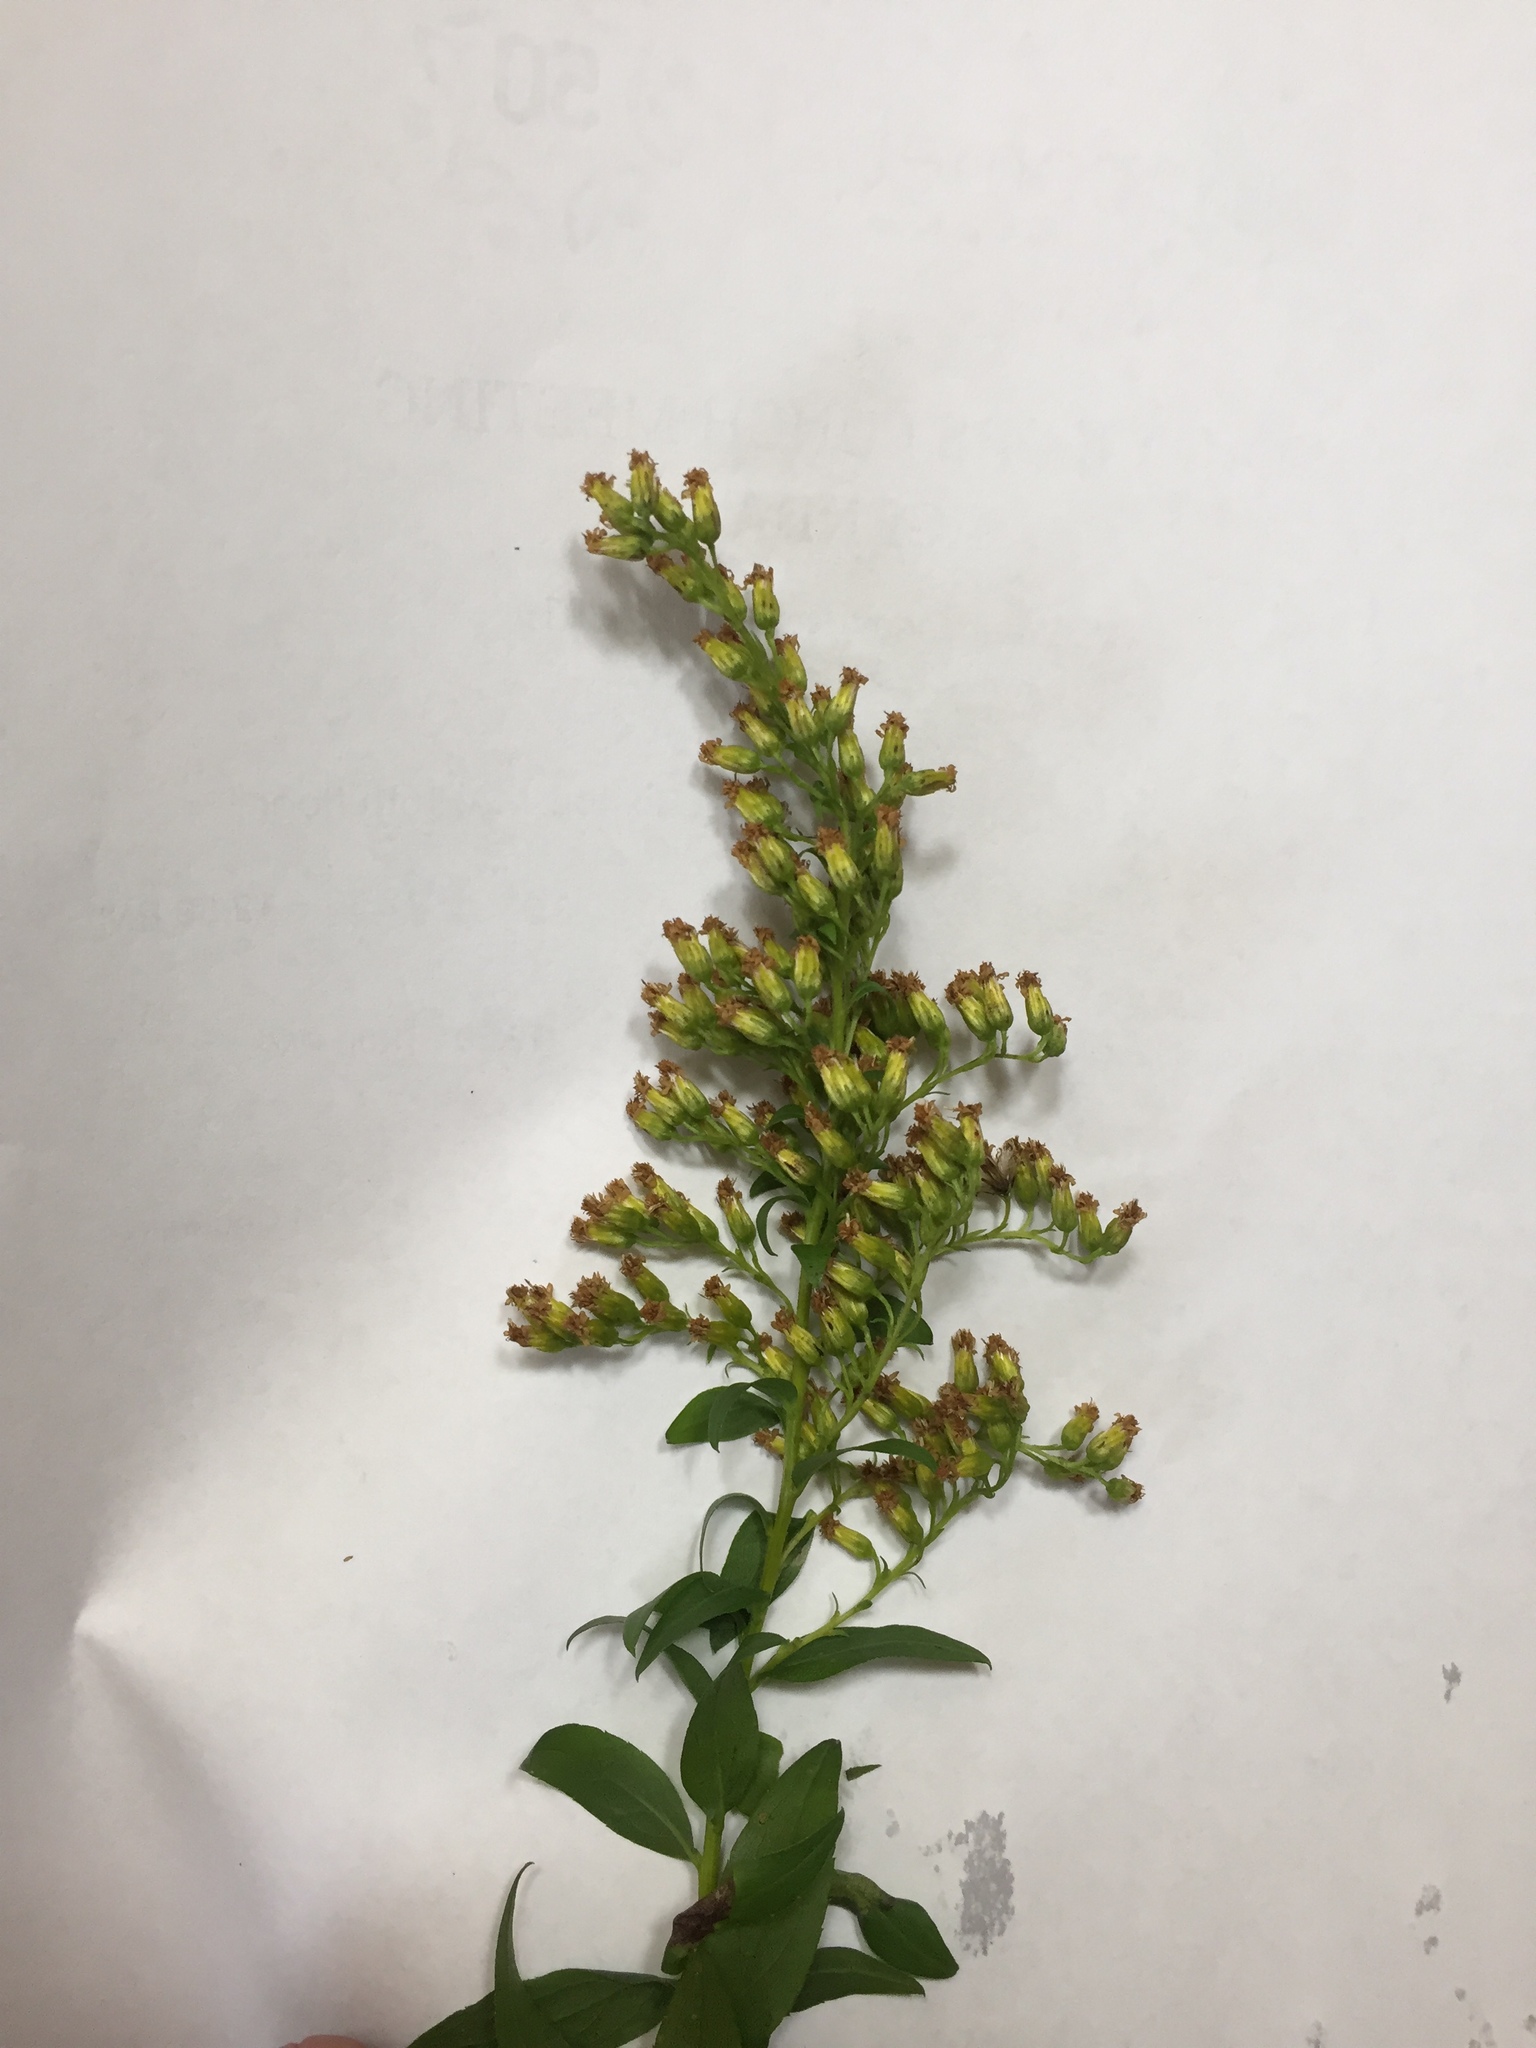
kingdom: Plantae
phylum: Tracheophyta
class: Magnoliopsida
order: Asterales
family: Asteraceae
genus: Solidago
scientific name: Solidago latissimifolia
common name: Elliott's goldenrod
